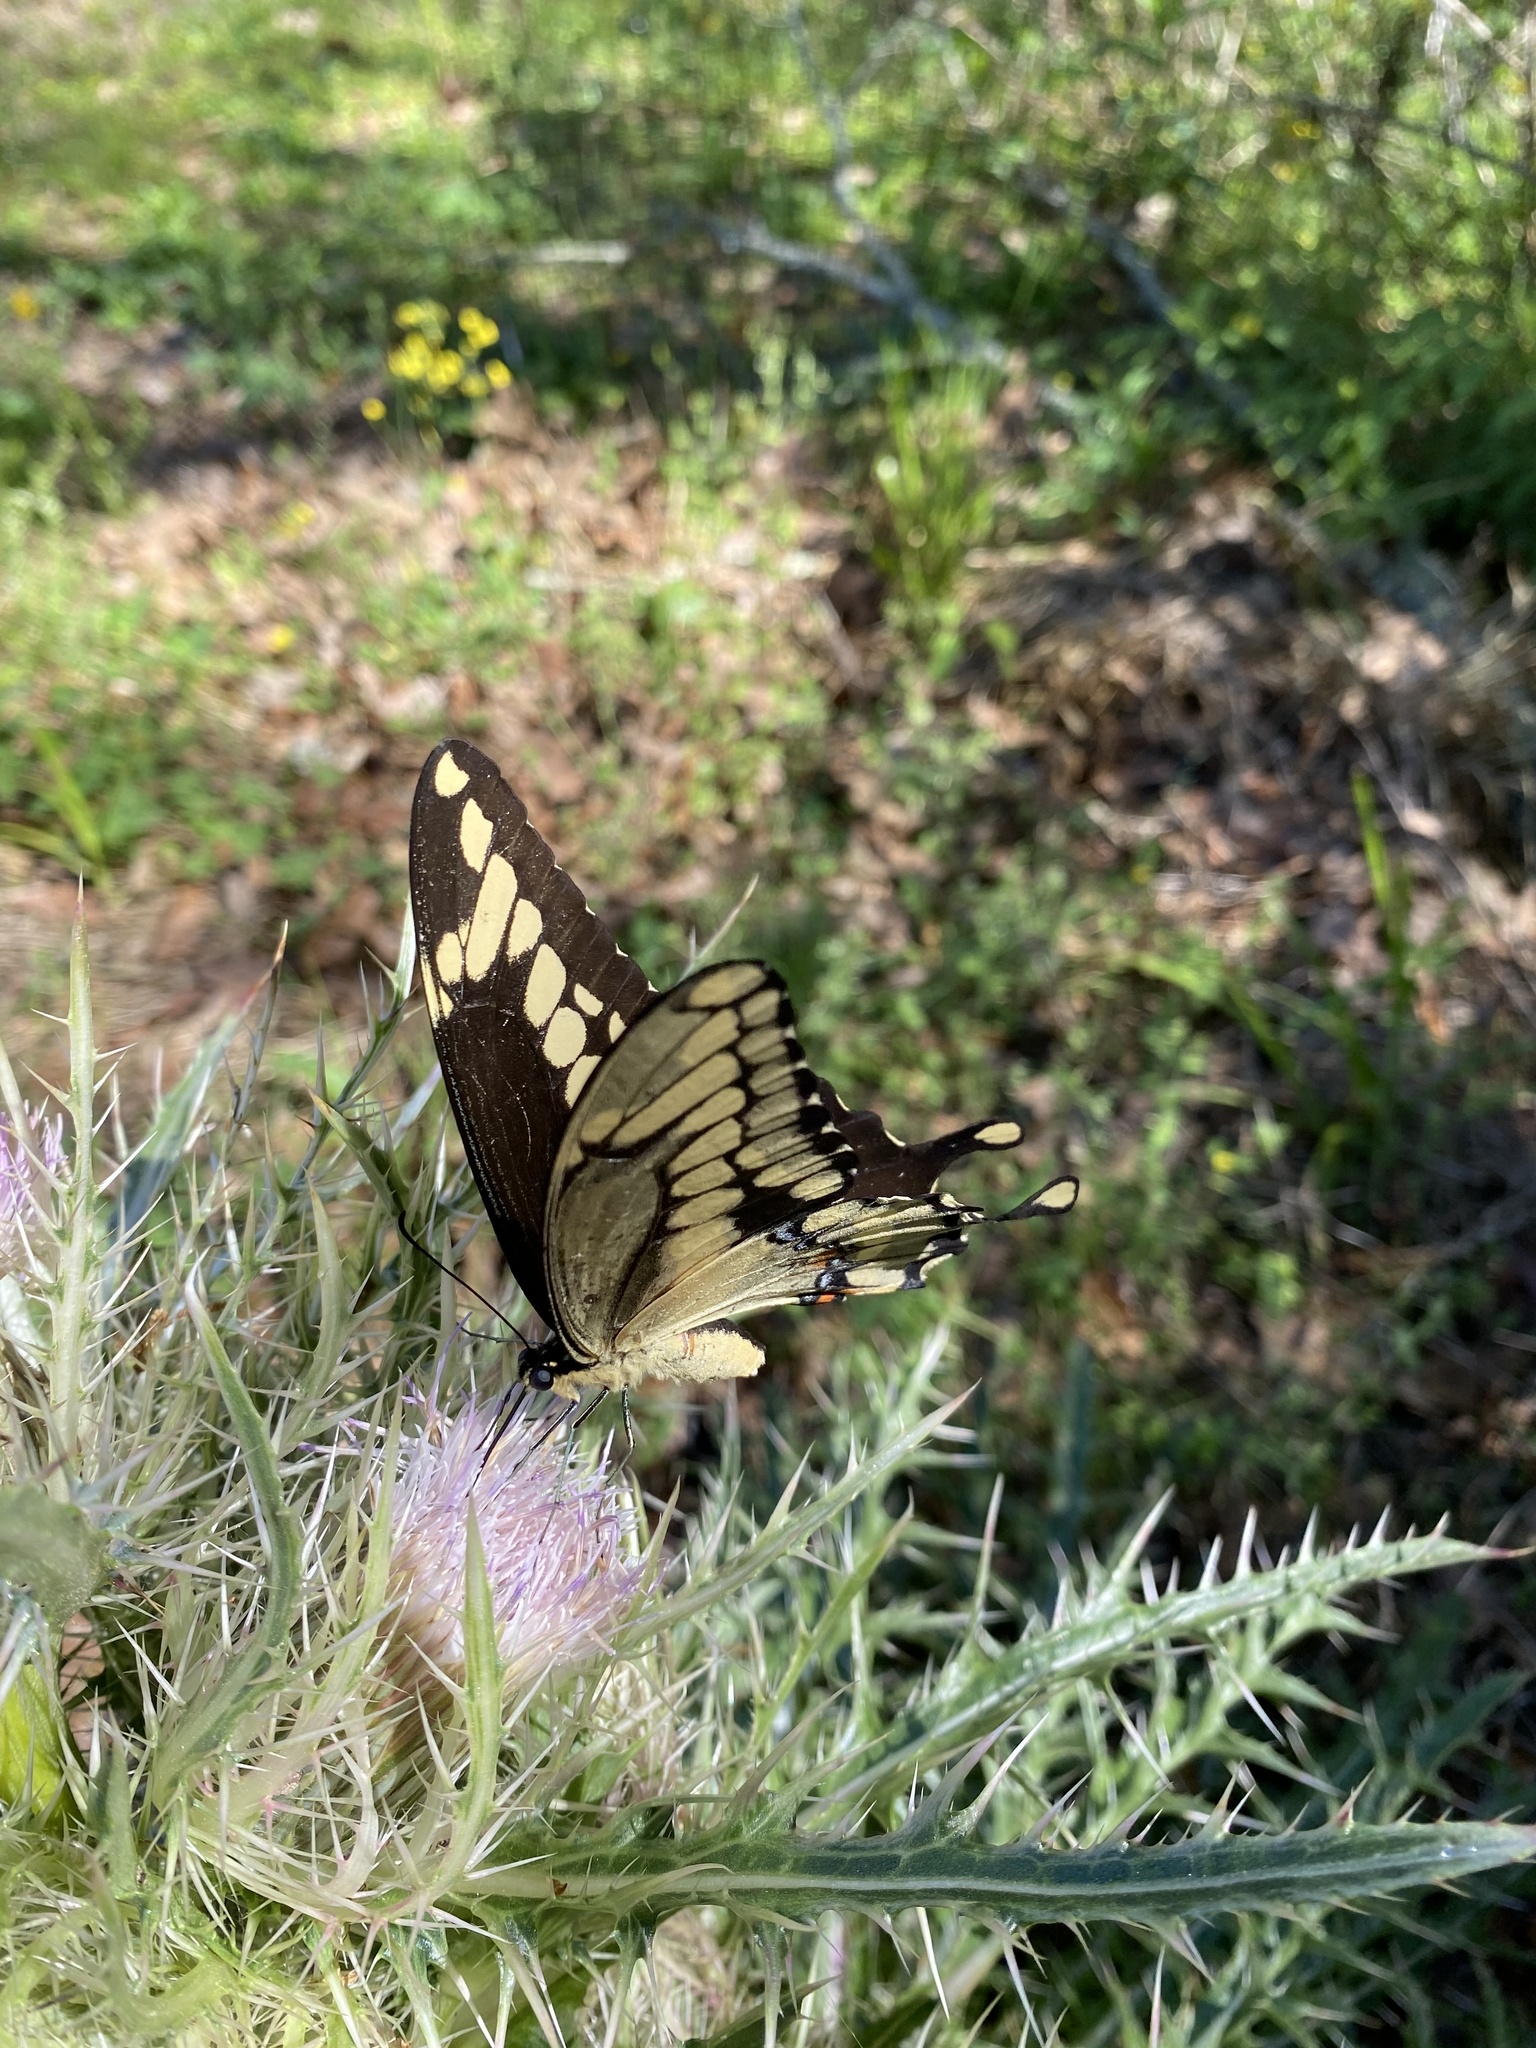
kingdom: Animalia
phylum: Arthropoda
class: Insecta
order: Lepidoptera
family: Papilionidae
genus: Papilio
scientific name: Papilio cresphontes
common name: Giant swallowtail
